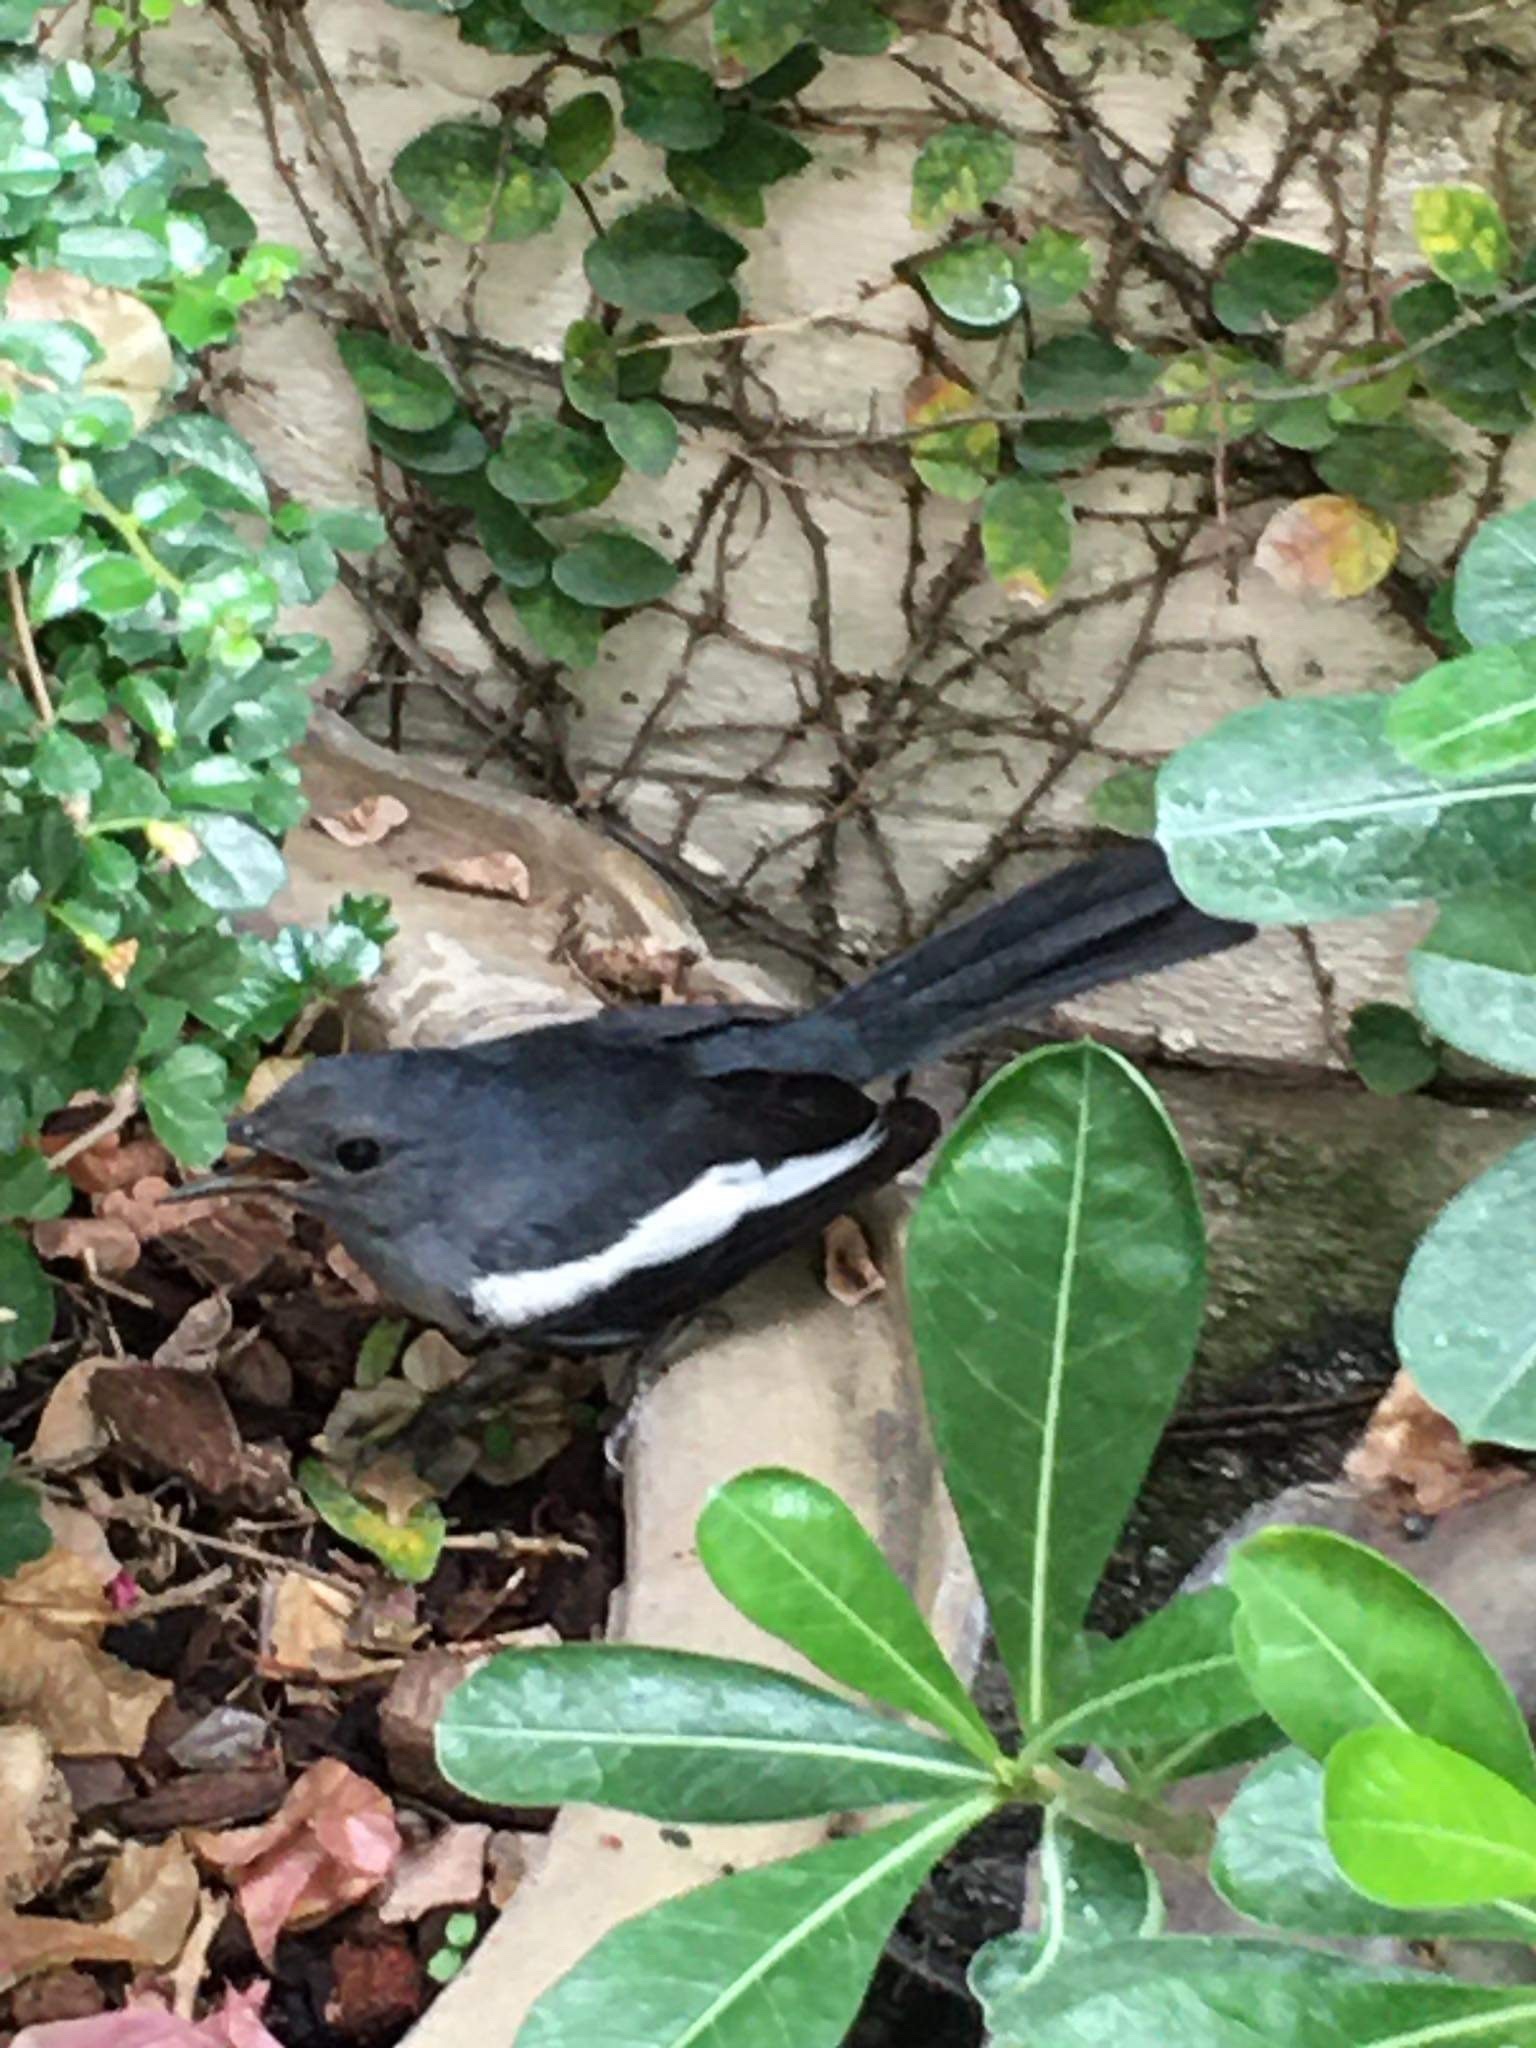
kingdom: Animalia
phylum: Chordata
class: Aves
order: Passeriformes
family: Muscicapidae
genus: Copsychus
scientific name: Copsychus saularis
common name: Oriental magpie-robin
